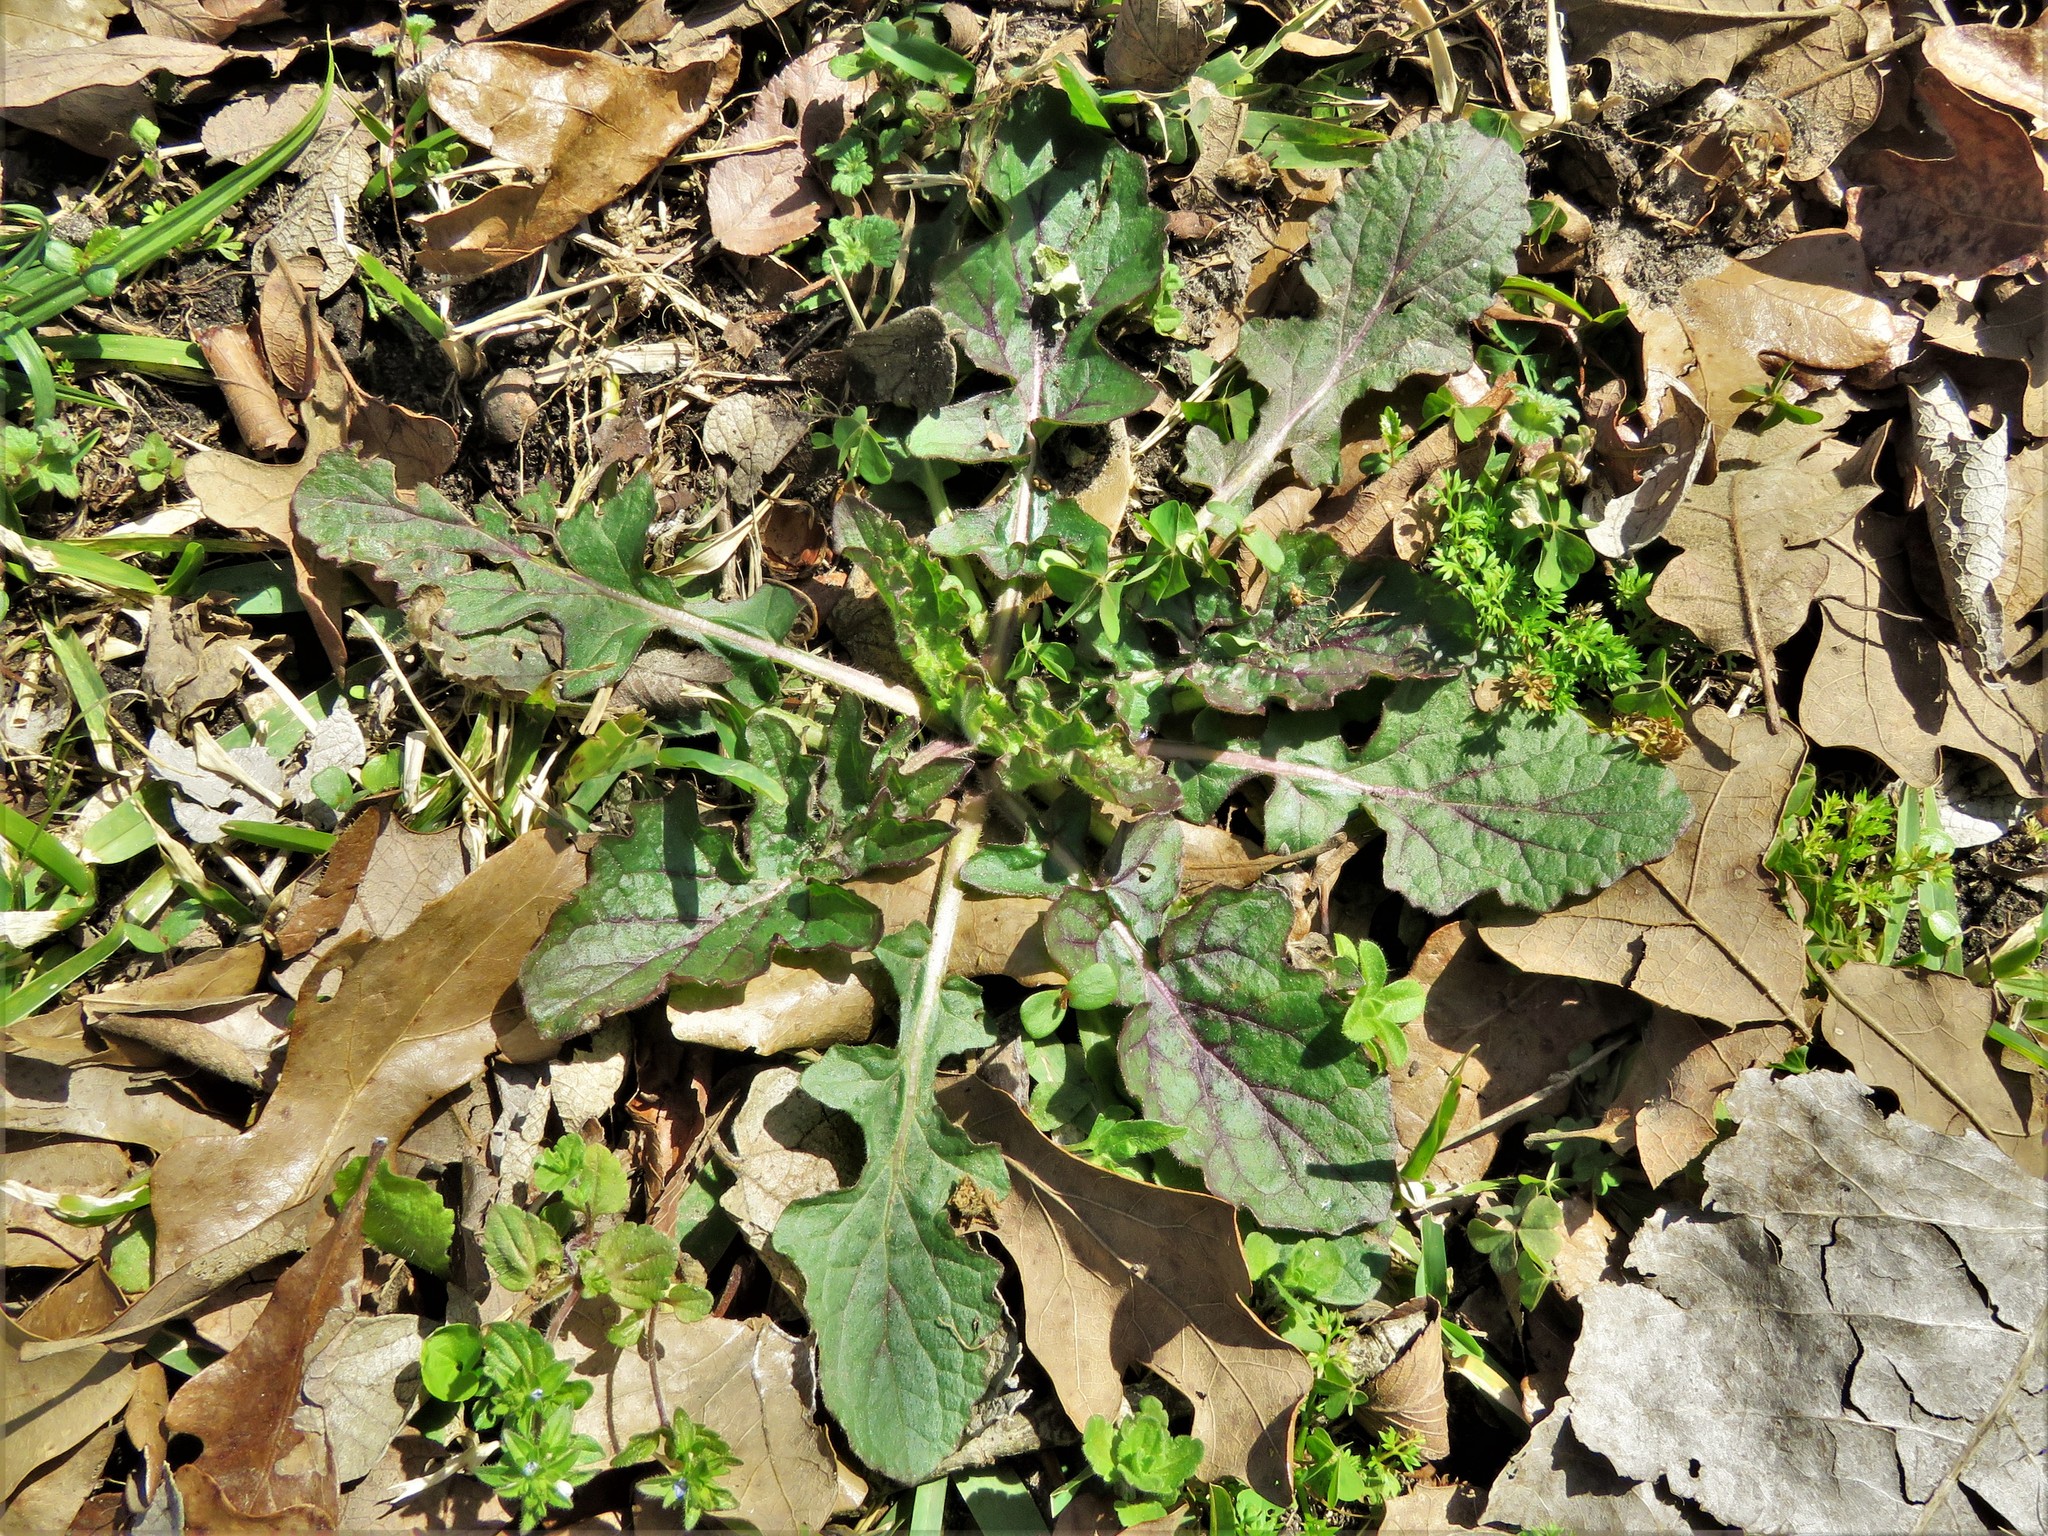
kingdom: Plantae
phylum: Tracheophyta
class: Magnoliopsida
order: Lamiales
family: Lamiaceae
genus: Salvia
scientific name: Salvia lyrata
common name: Cancerweed
